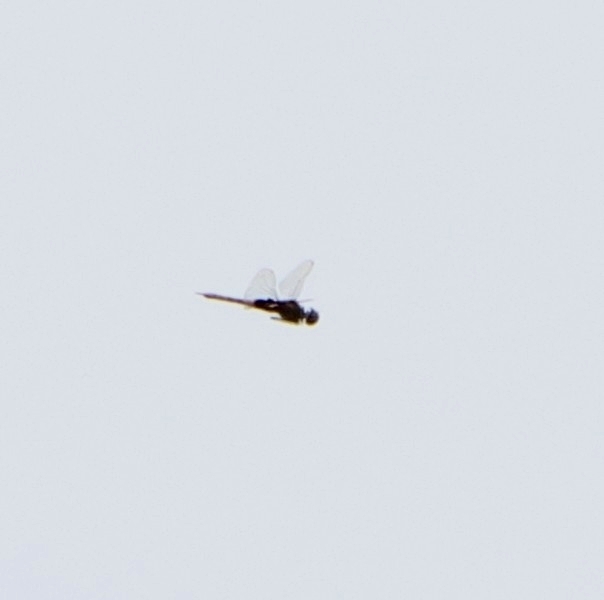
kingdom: Animalia
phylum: Arthropoda
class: Insecta
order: Odonata
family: Libellulidae
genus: Tramea
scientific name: Tramea limbata
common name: Ferruginous glider
